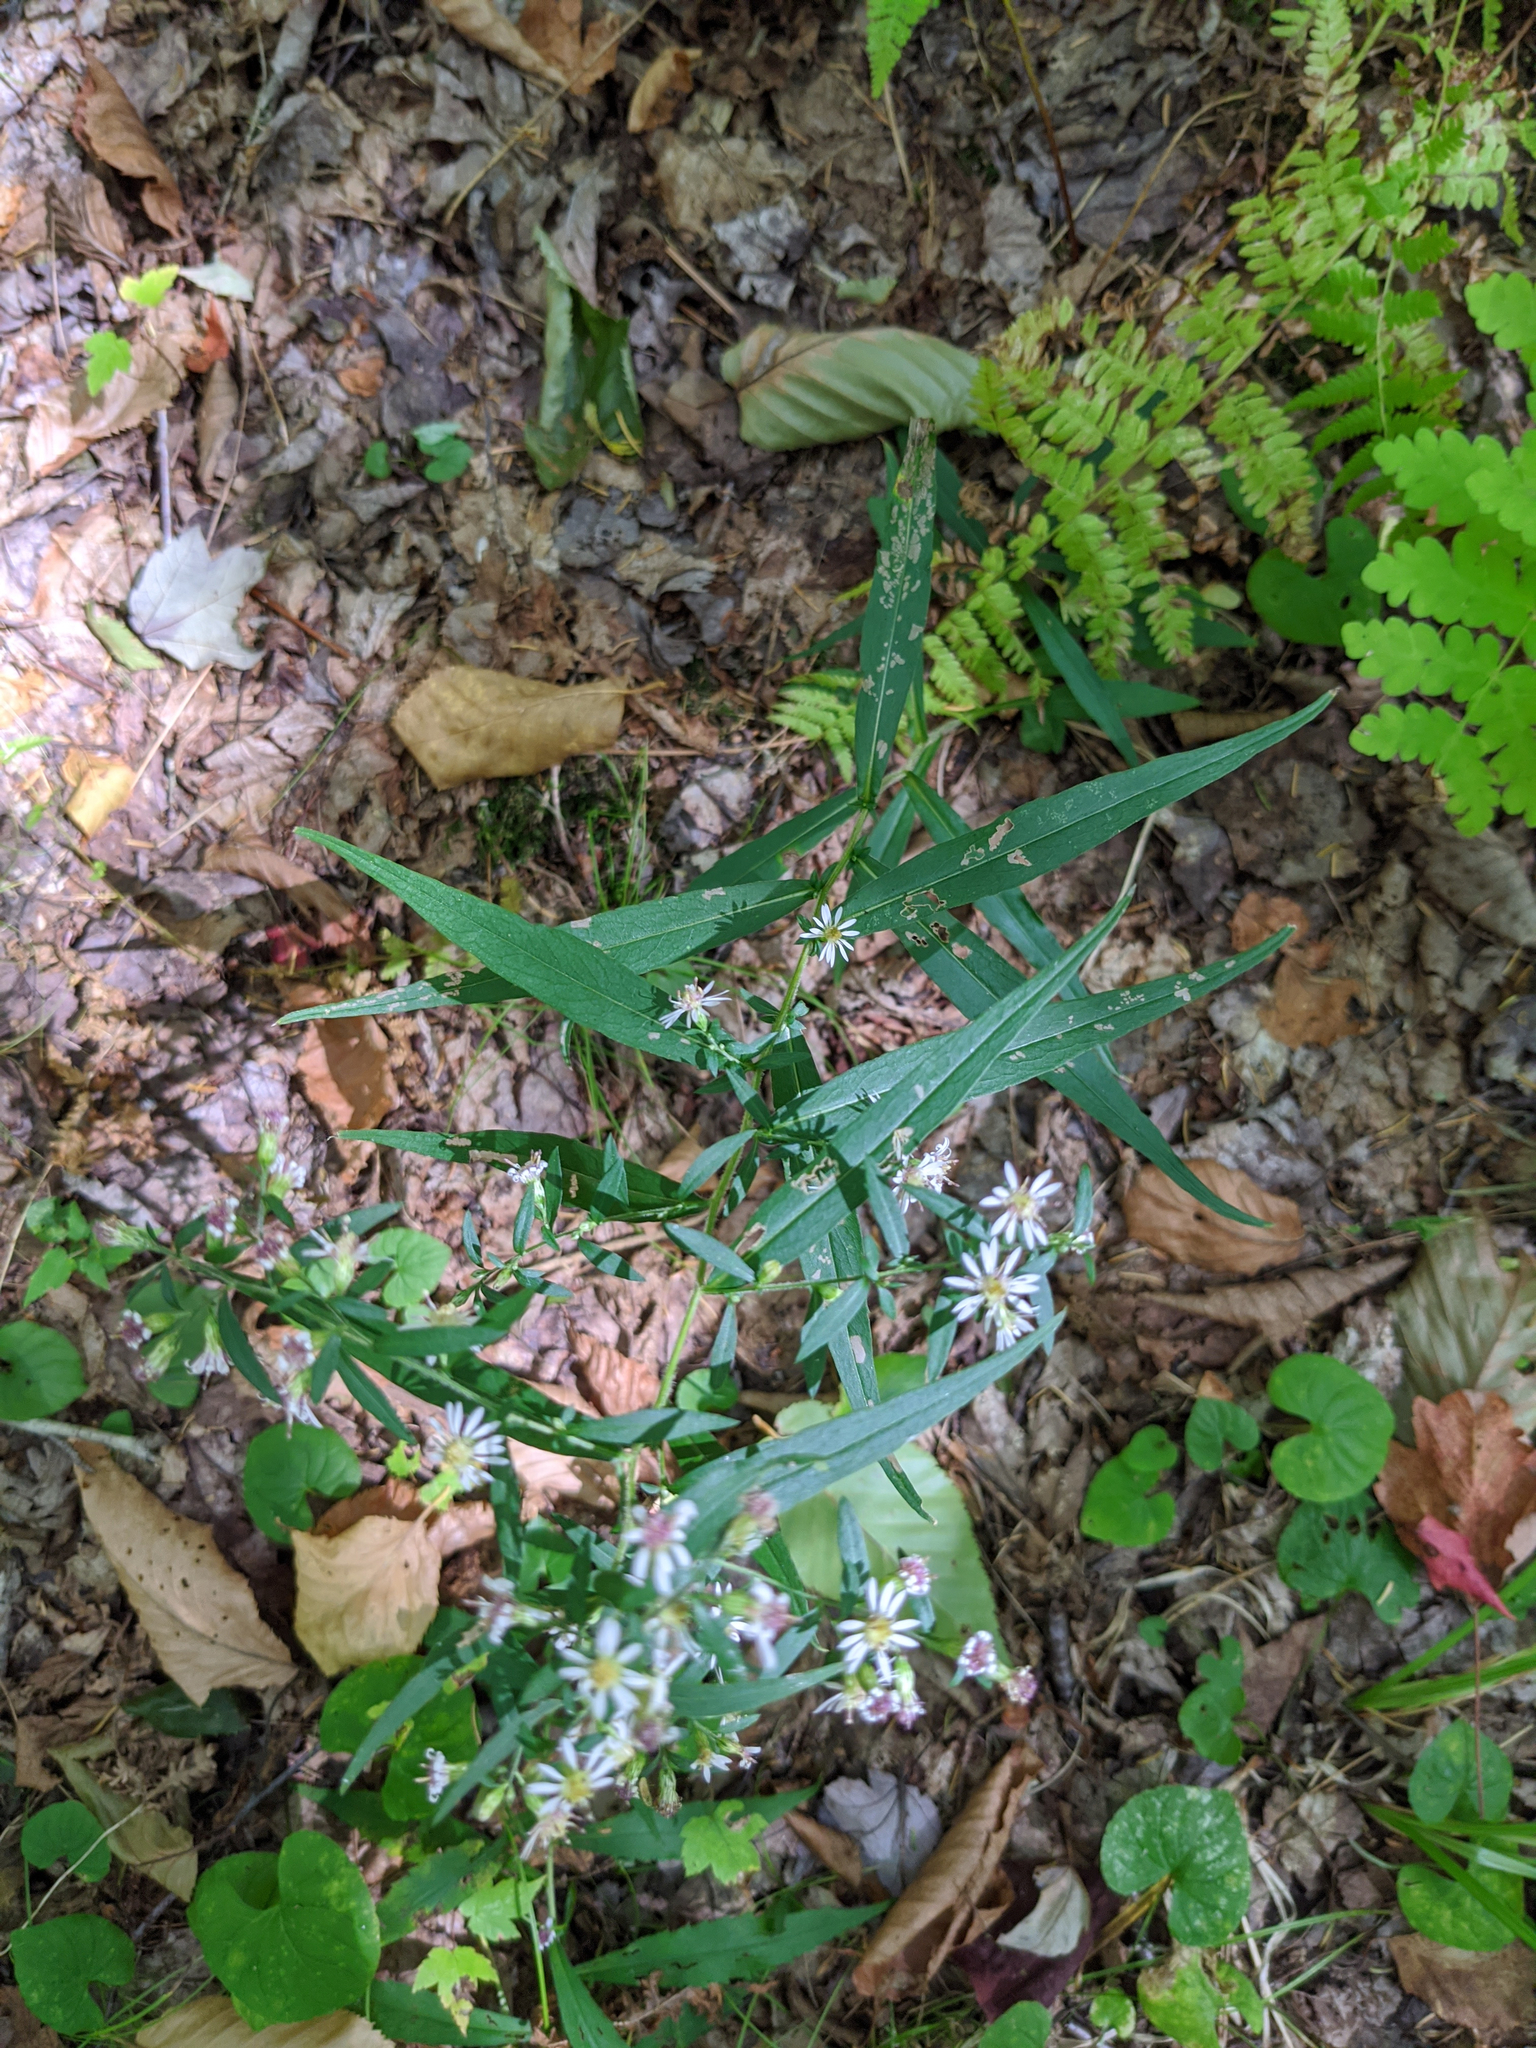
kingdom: Plantae
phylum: Tracheophyta
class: Magnoliopsida
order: Asterales
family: Asteraceae
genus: Symphyotrichum
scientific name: Symphyotrichum lateriflorum
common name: Calico aster
